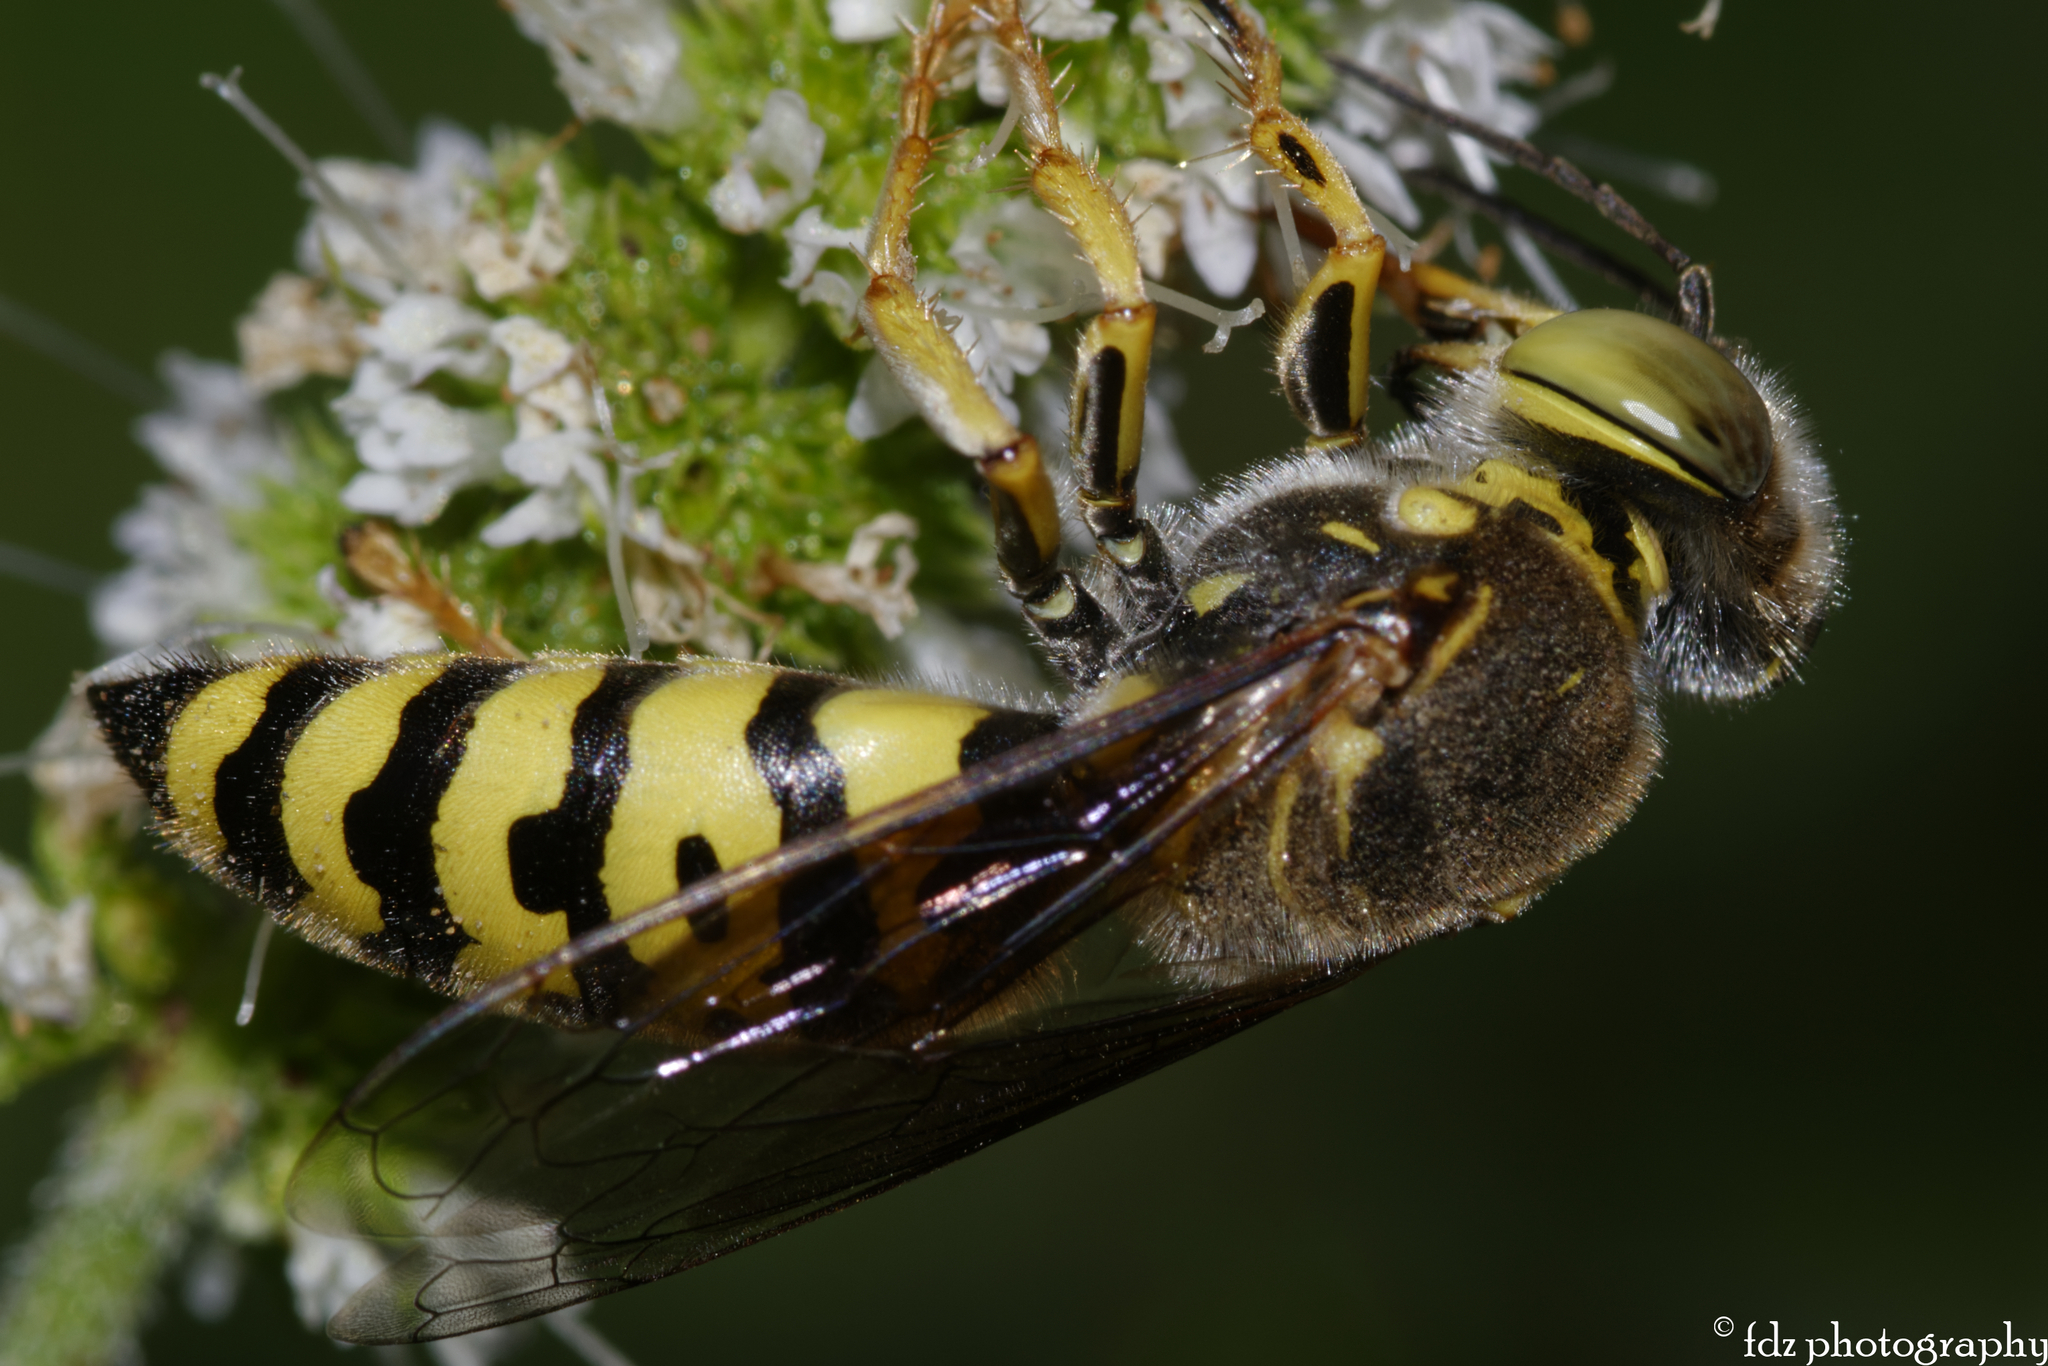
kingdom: Animalia
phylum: Arthropoda
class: Insecta
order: Hymenoptera
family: Crabronidae
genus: Bembix
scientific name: Bembix oculata
